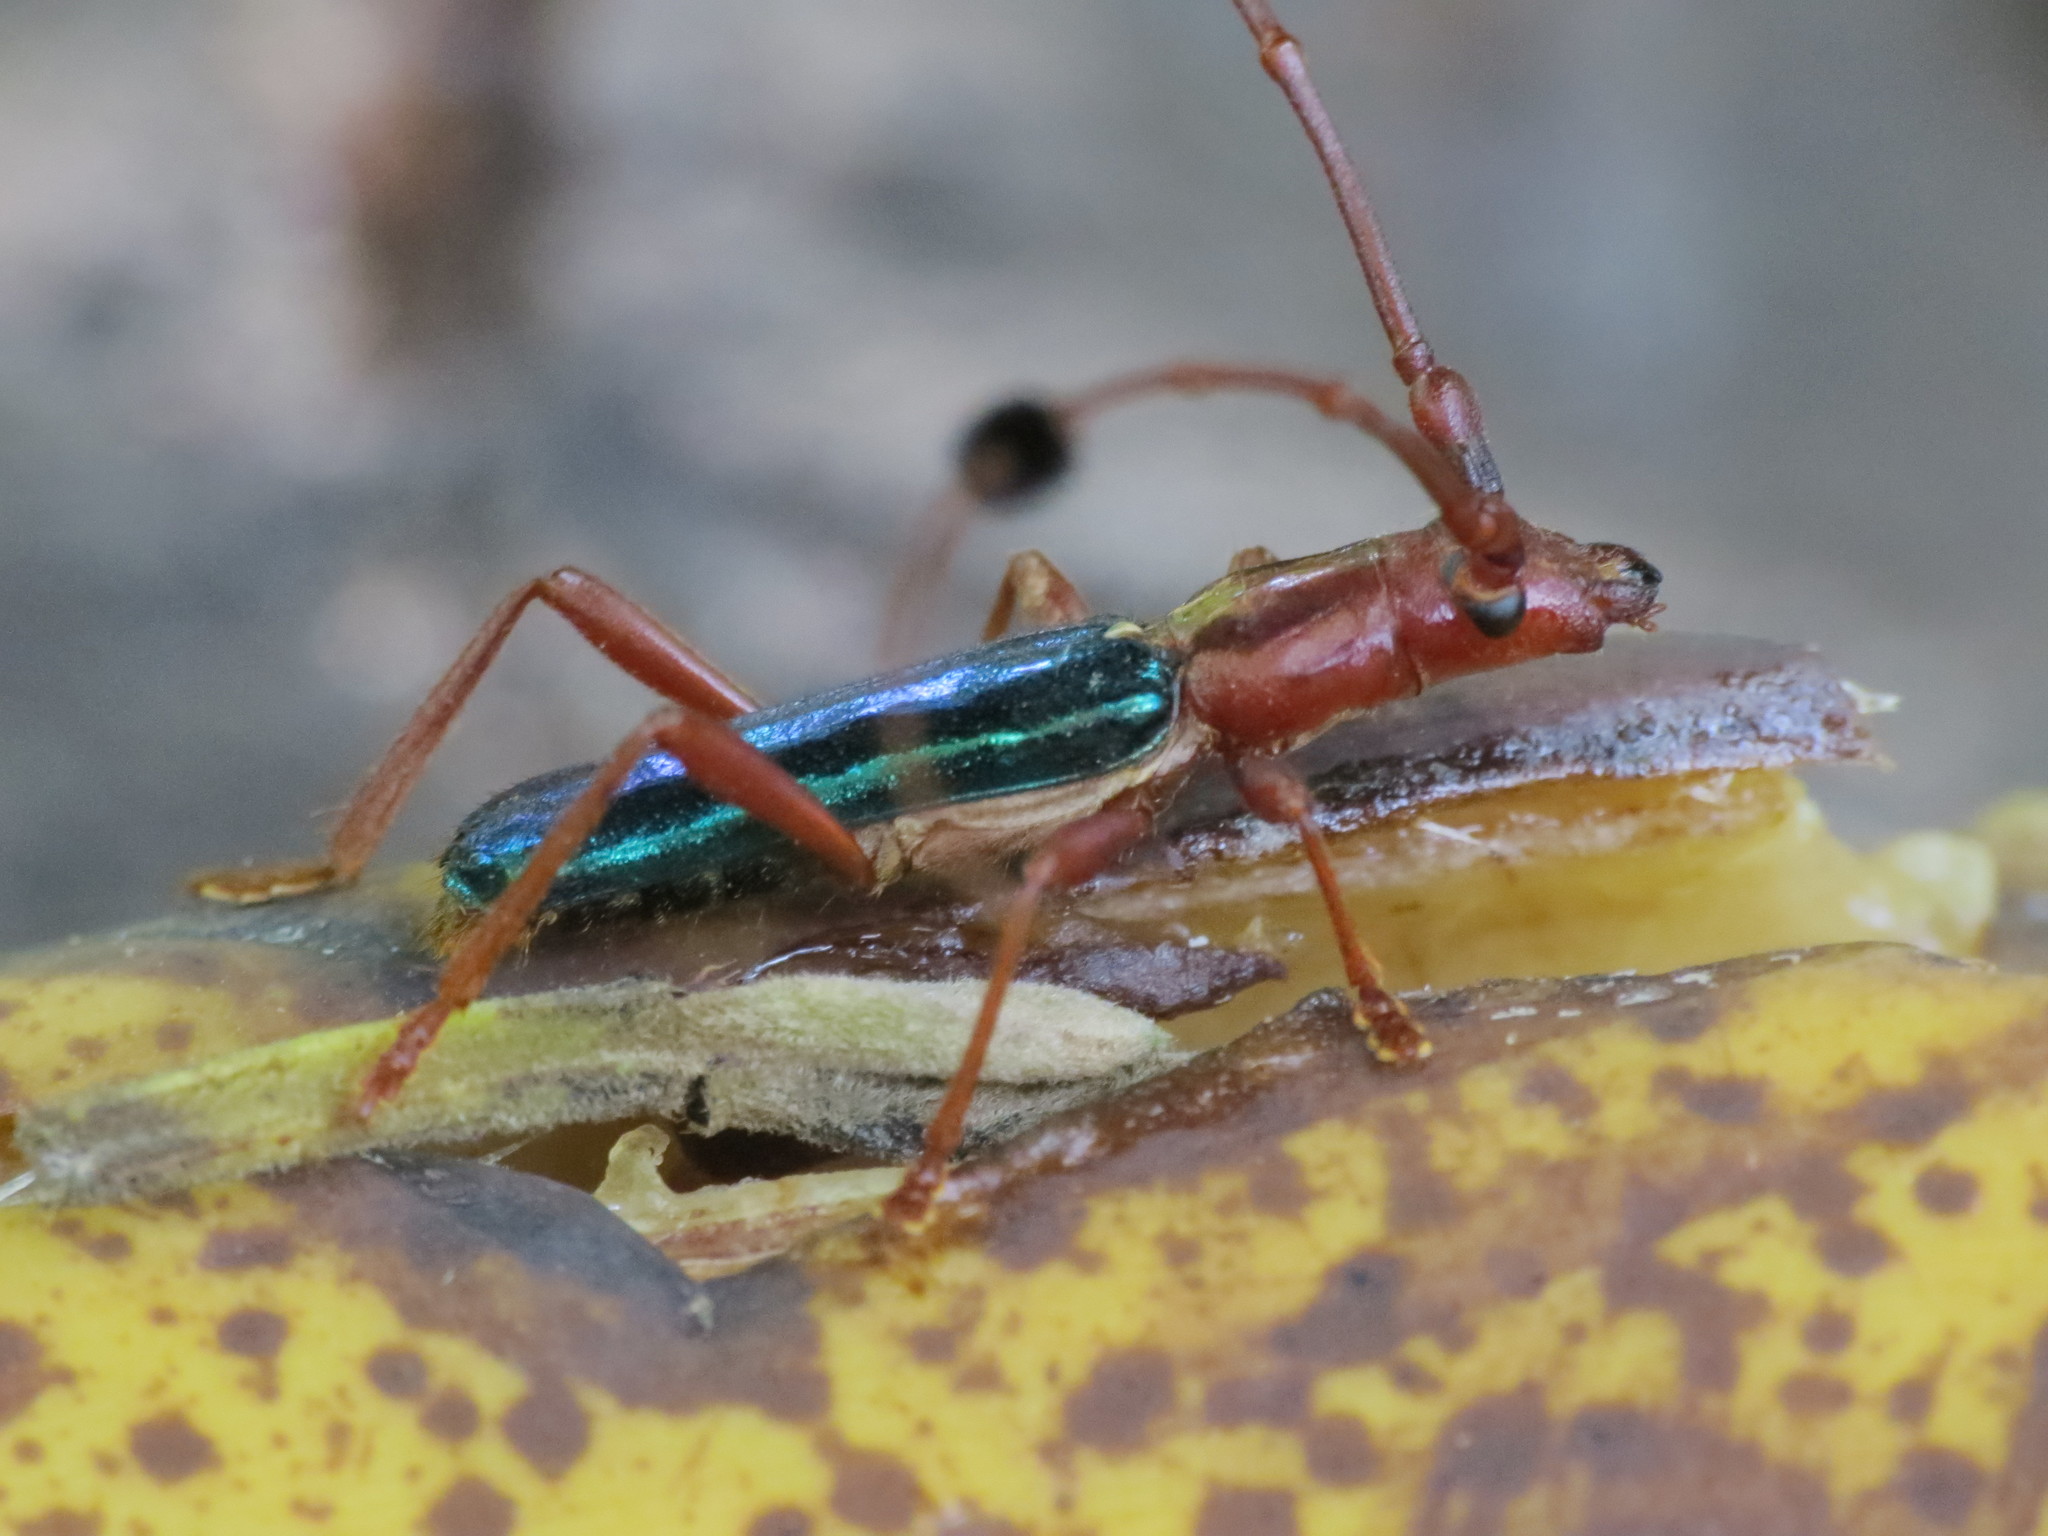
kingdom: Animalia
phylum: Arthropoda
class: Insecta
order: Coleoptera
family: Cerambycidae
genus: Compsocerus
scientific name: Compsocerus violaceus
